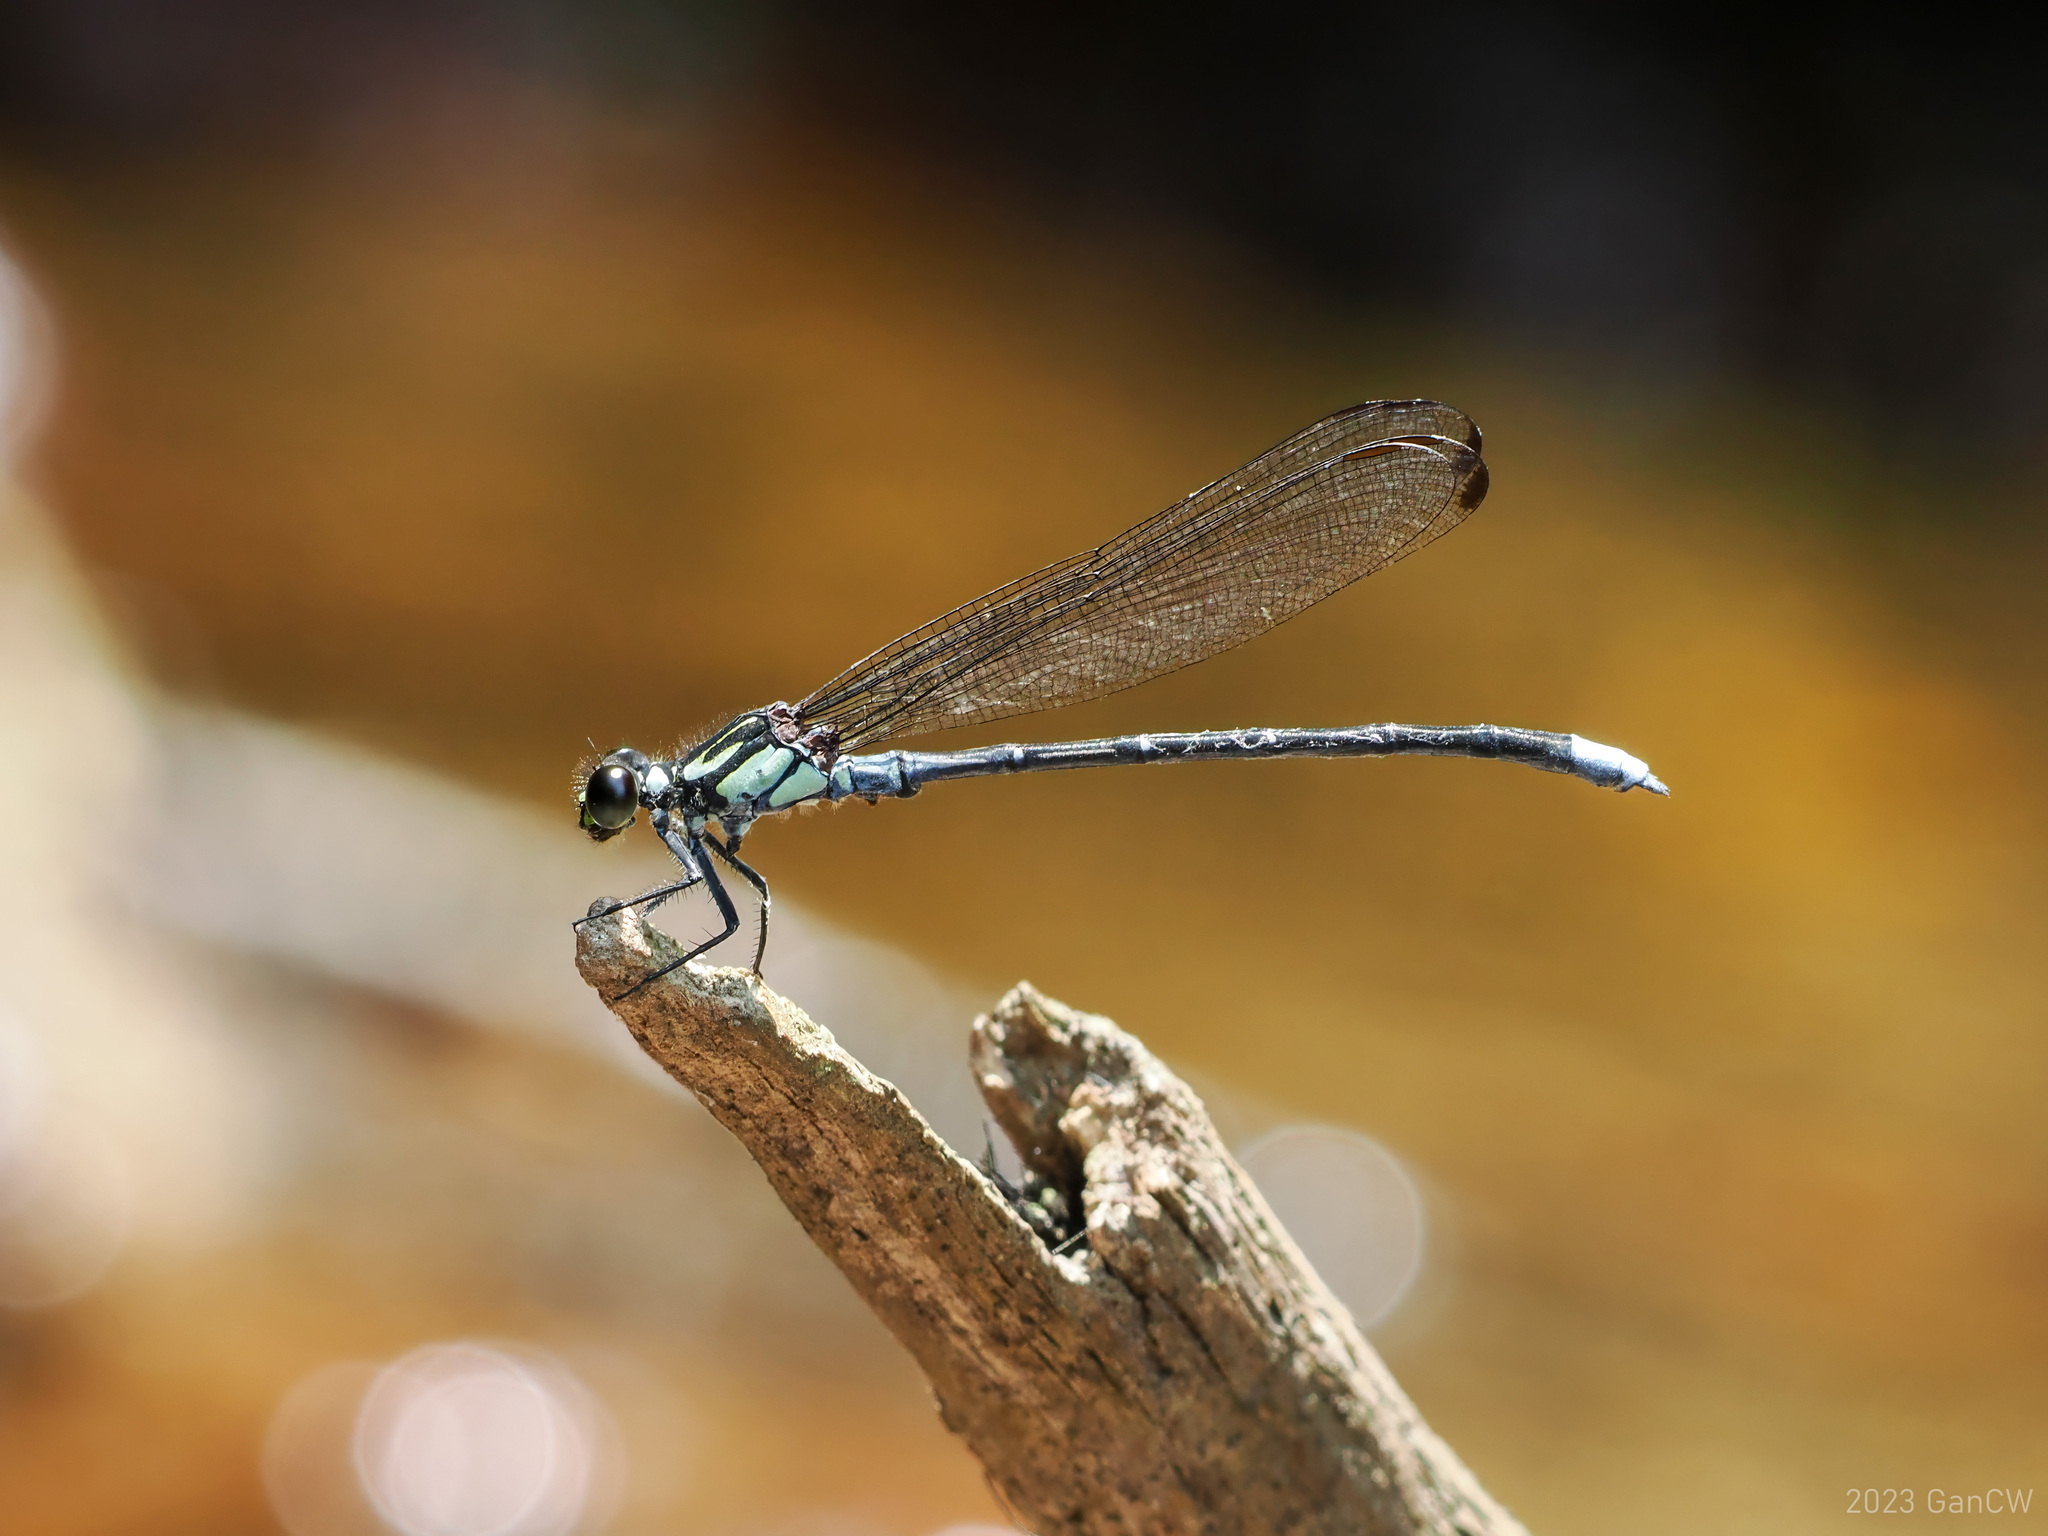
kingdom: Animalia
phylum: Arthropoda
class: Insecta
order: Odonata
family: Euphaeidae
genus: Anisopleura
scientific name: Anisopleura comes
